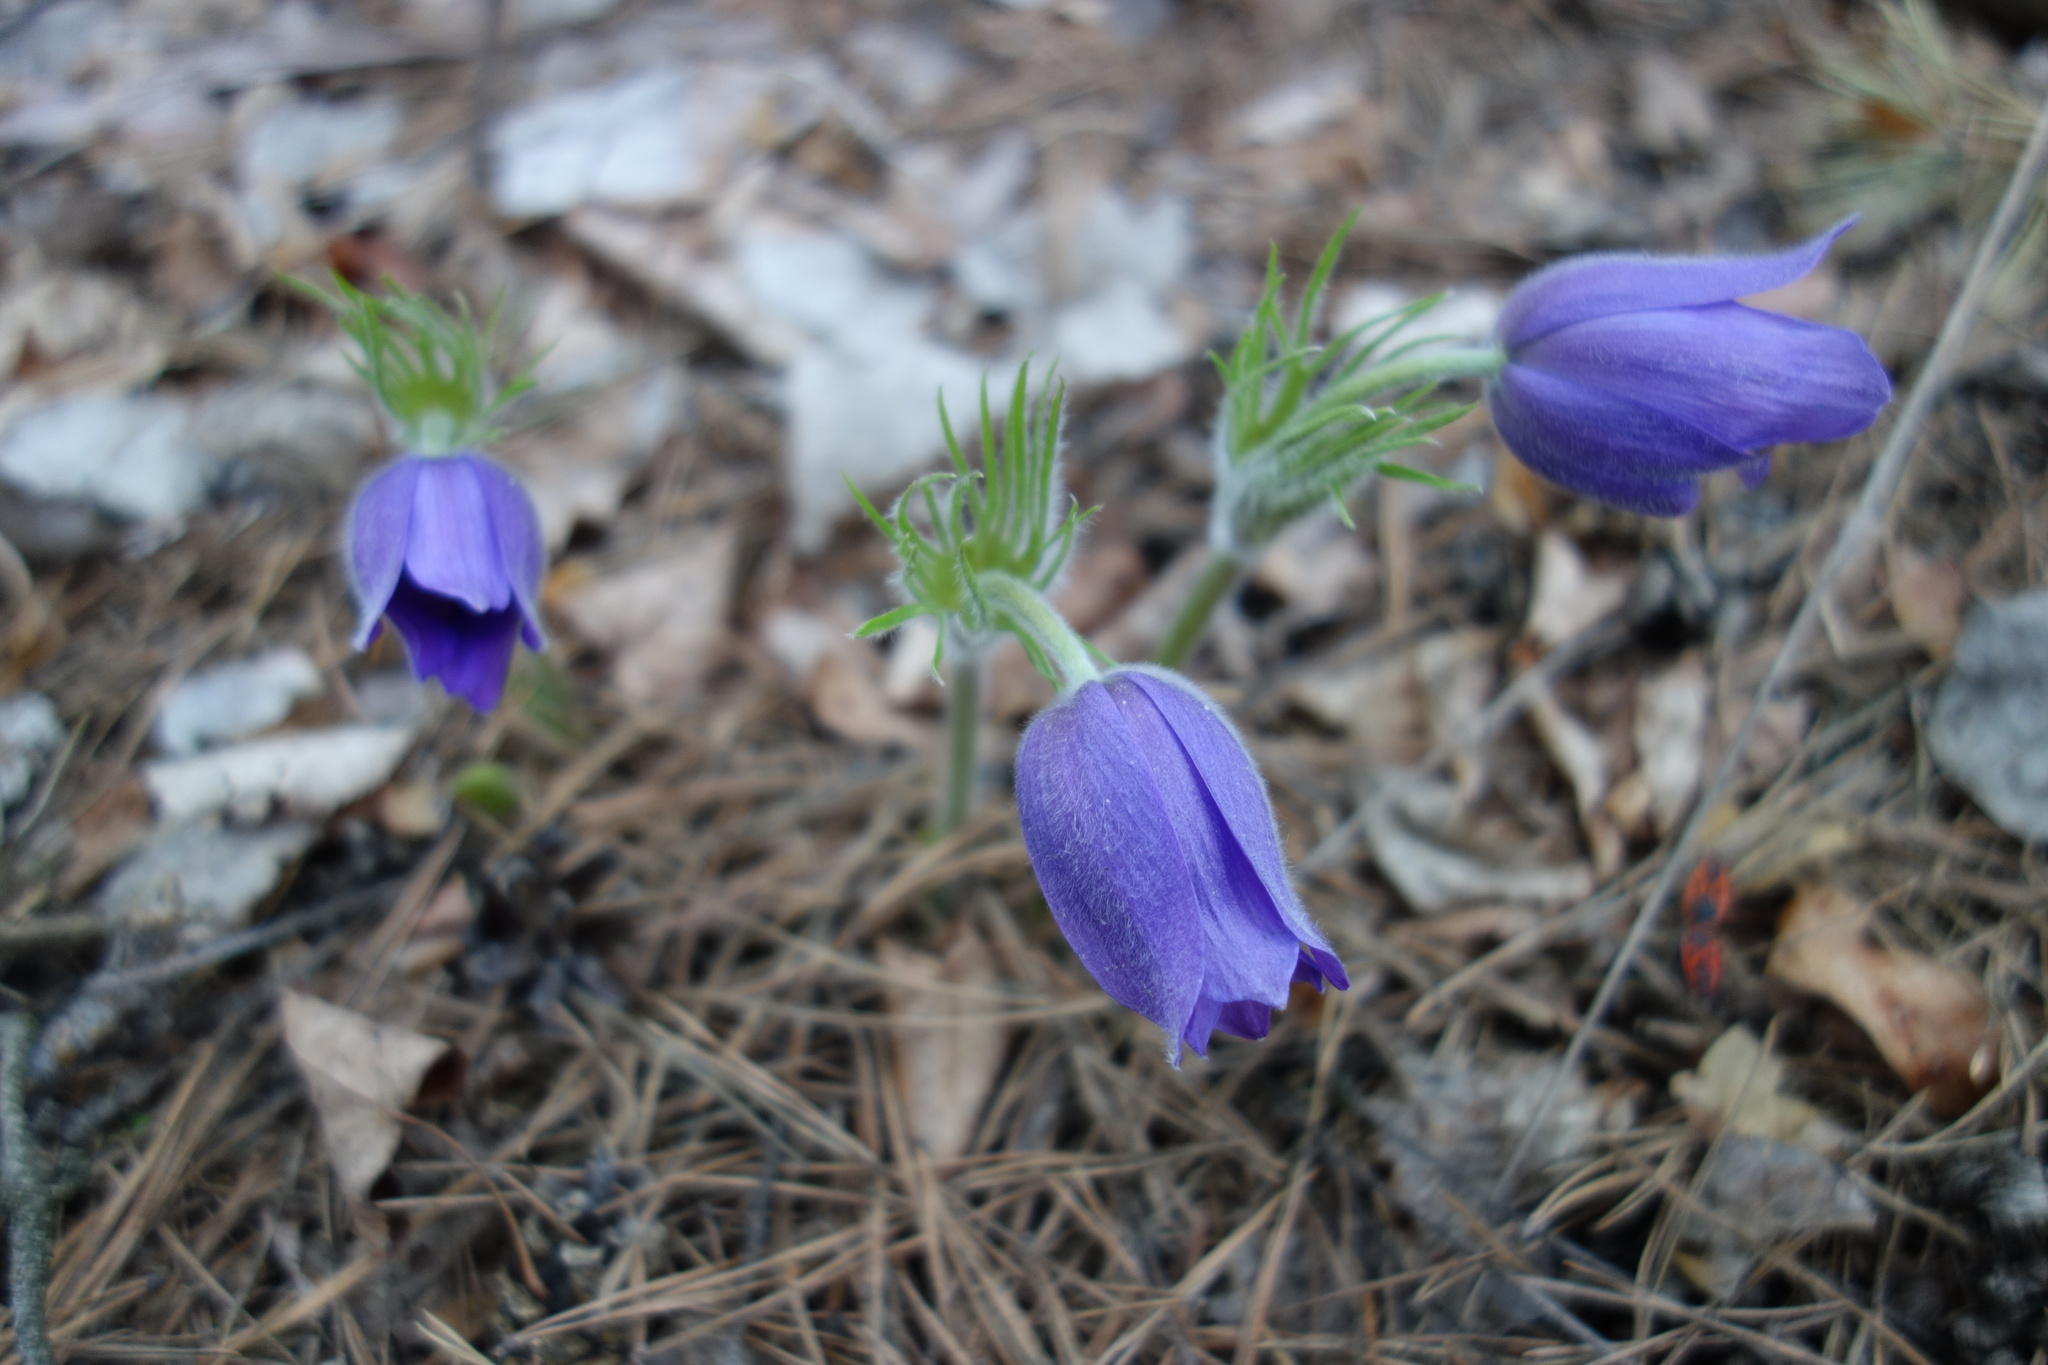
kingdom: Plantae
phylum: Tracheophyta
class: Magnoliopsida
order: Ranunculales
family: Ranunculaceae
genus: Pulsatilla
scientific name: Pulsatilla patens
